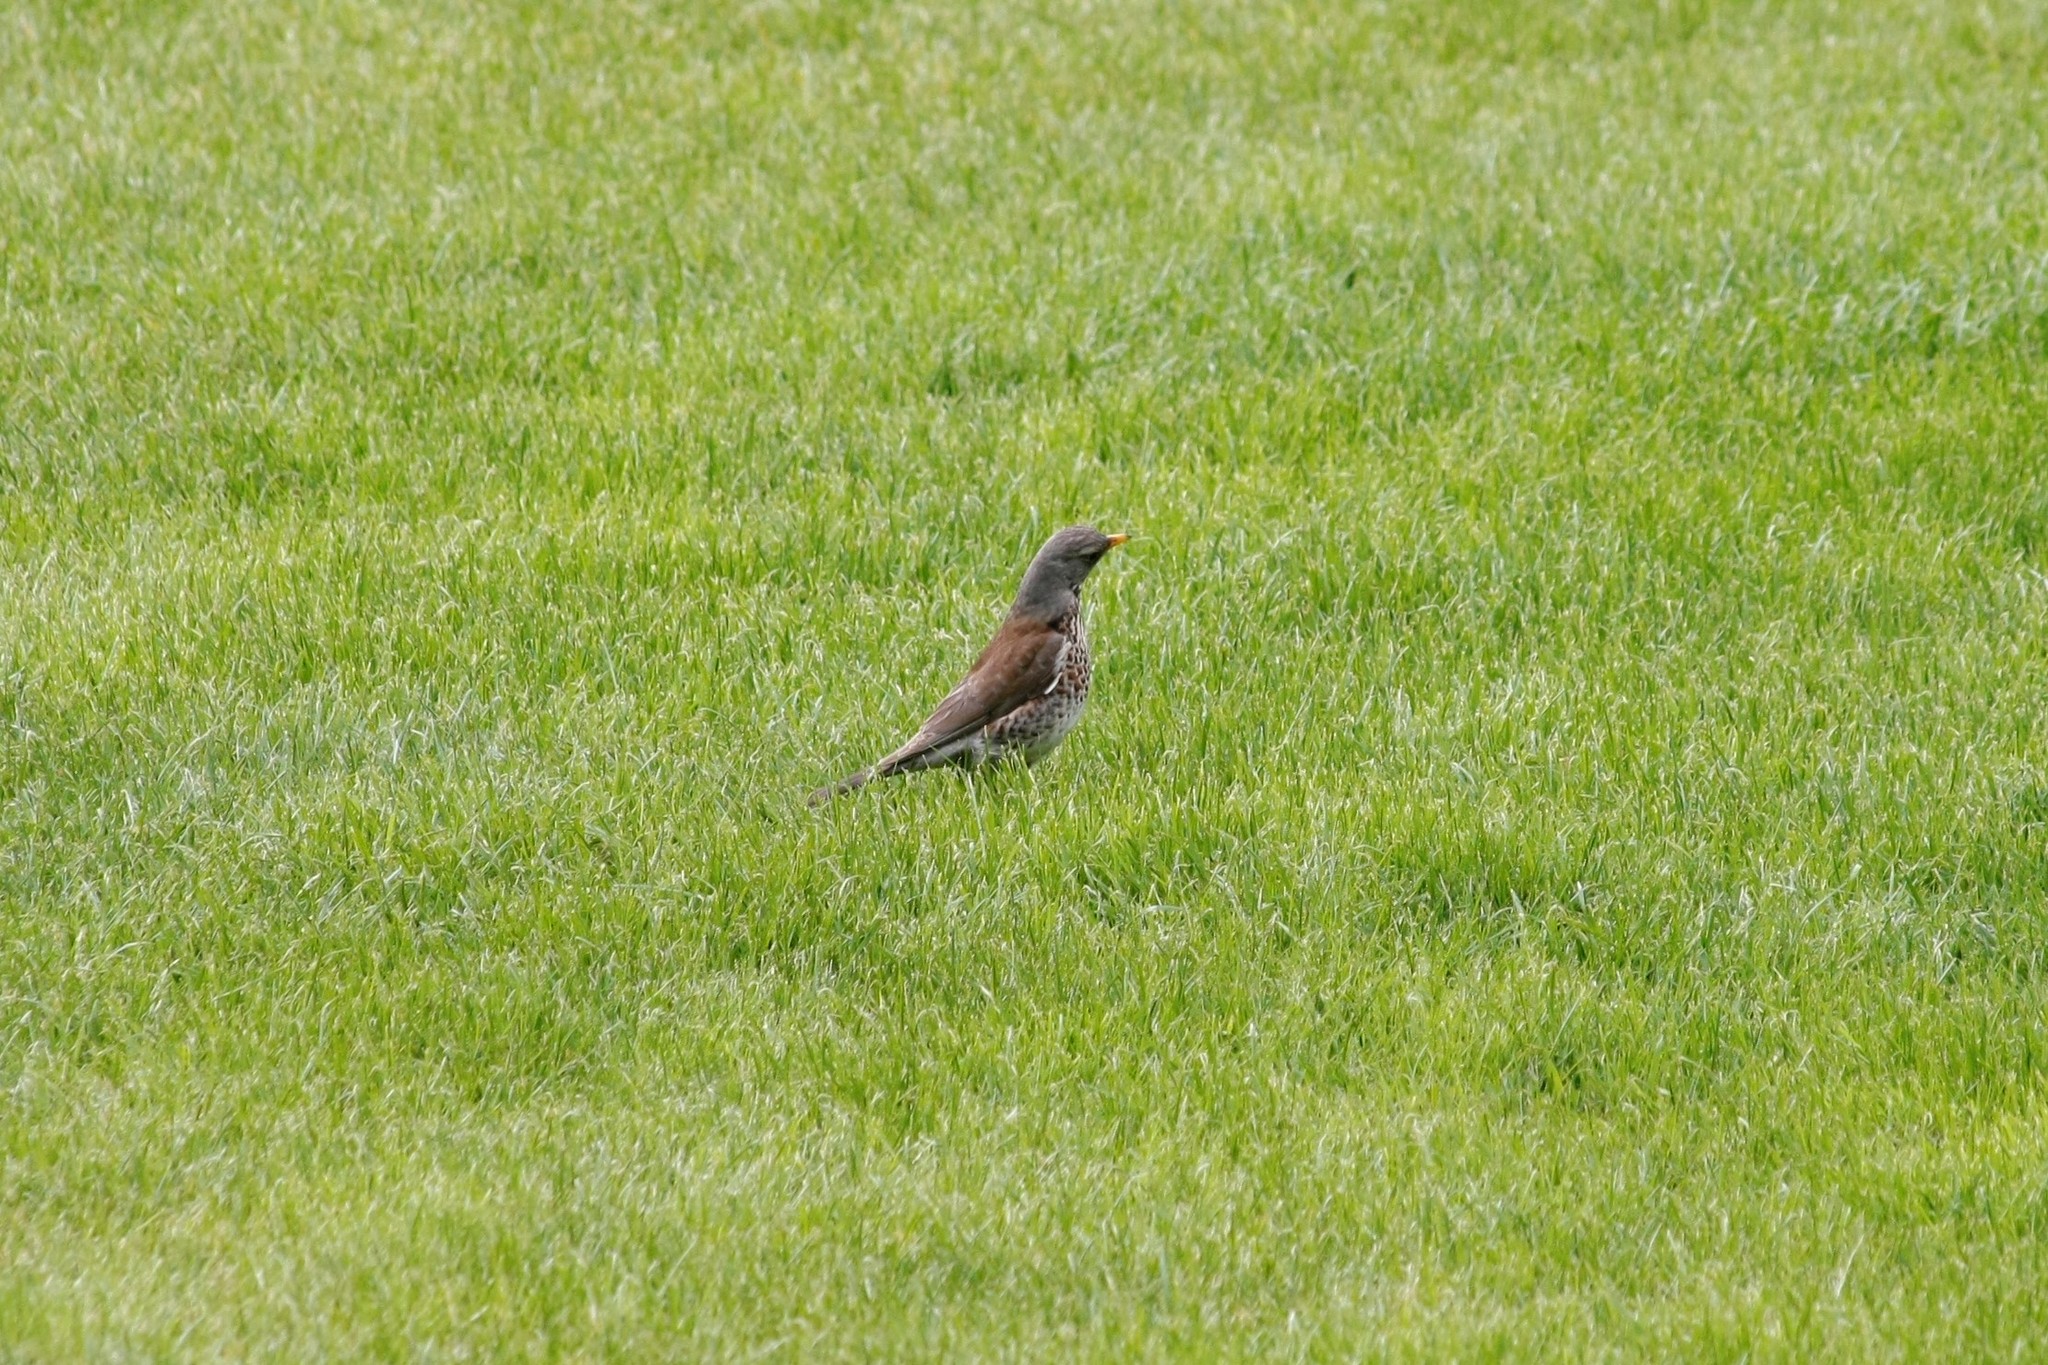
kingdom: Animalia
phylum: Chordata
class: Aves
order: Passeriformes
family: Turdidae
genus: Turdus
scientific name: Turdus pilaris
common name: Fieldfare
